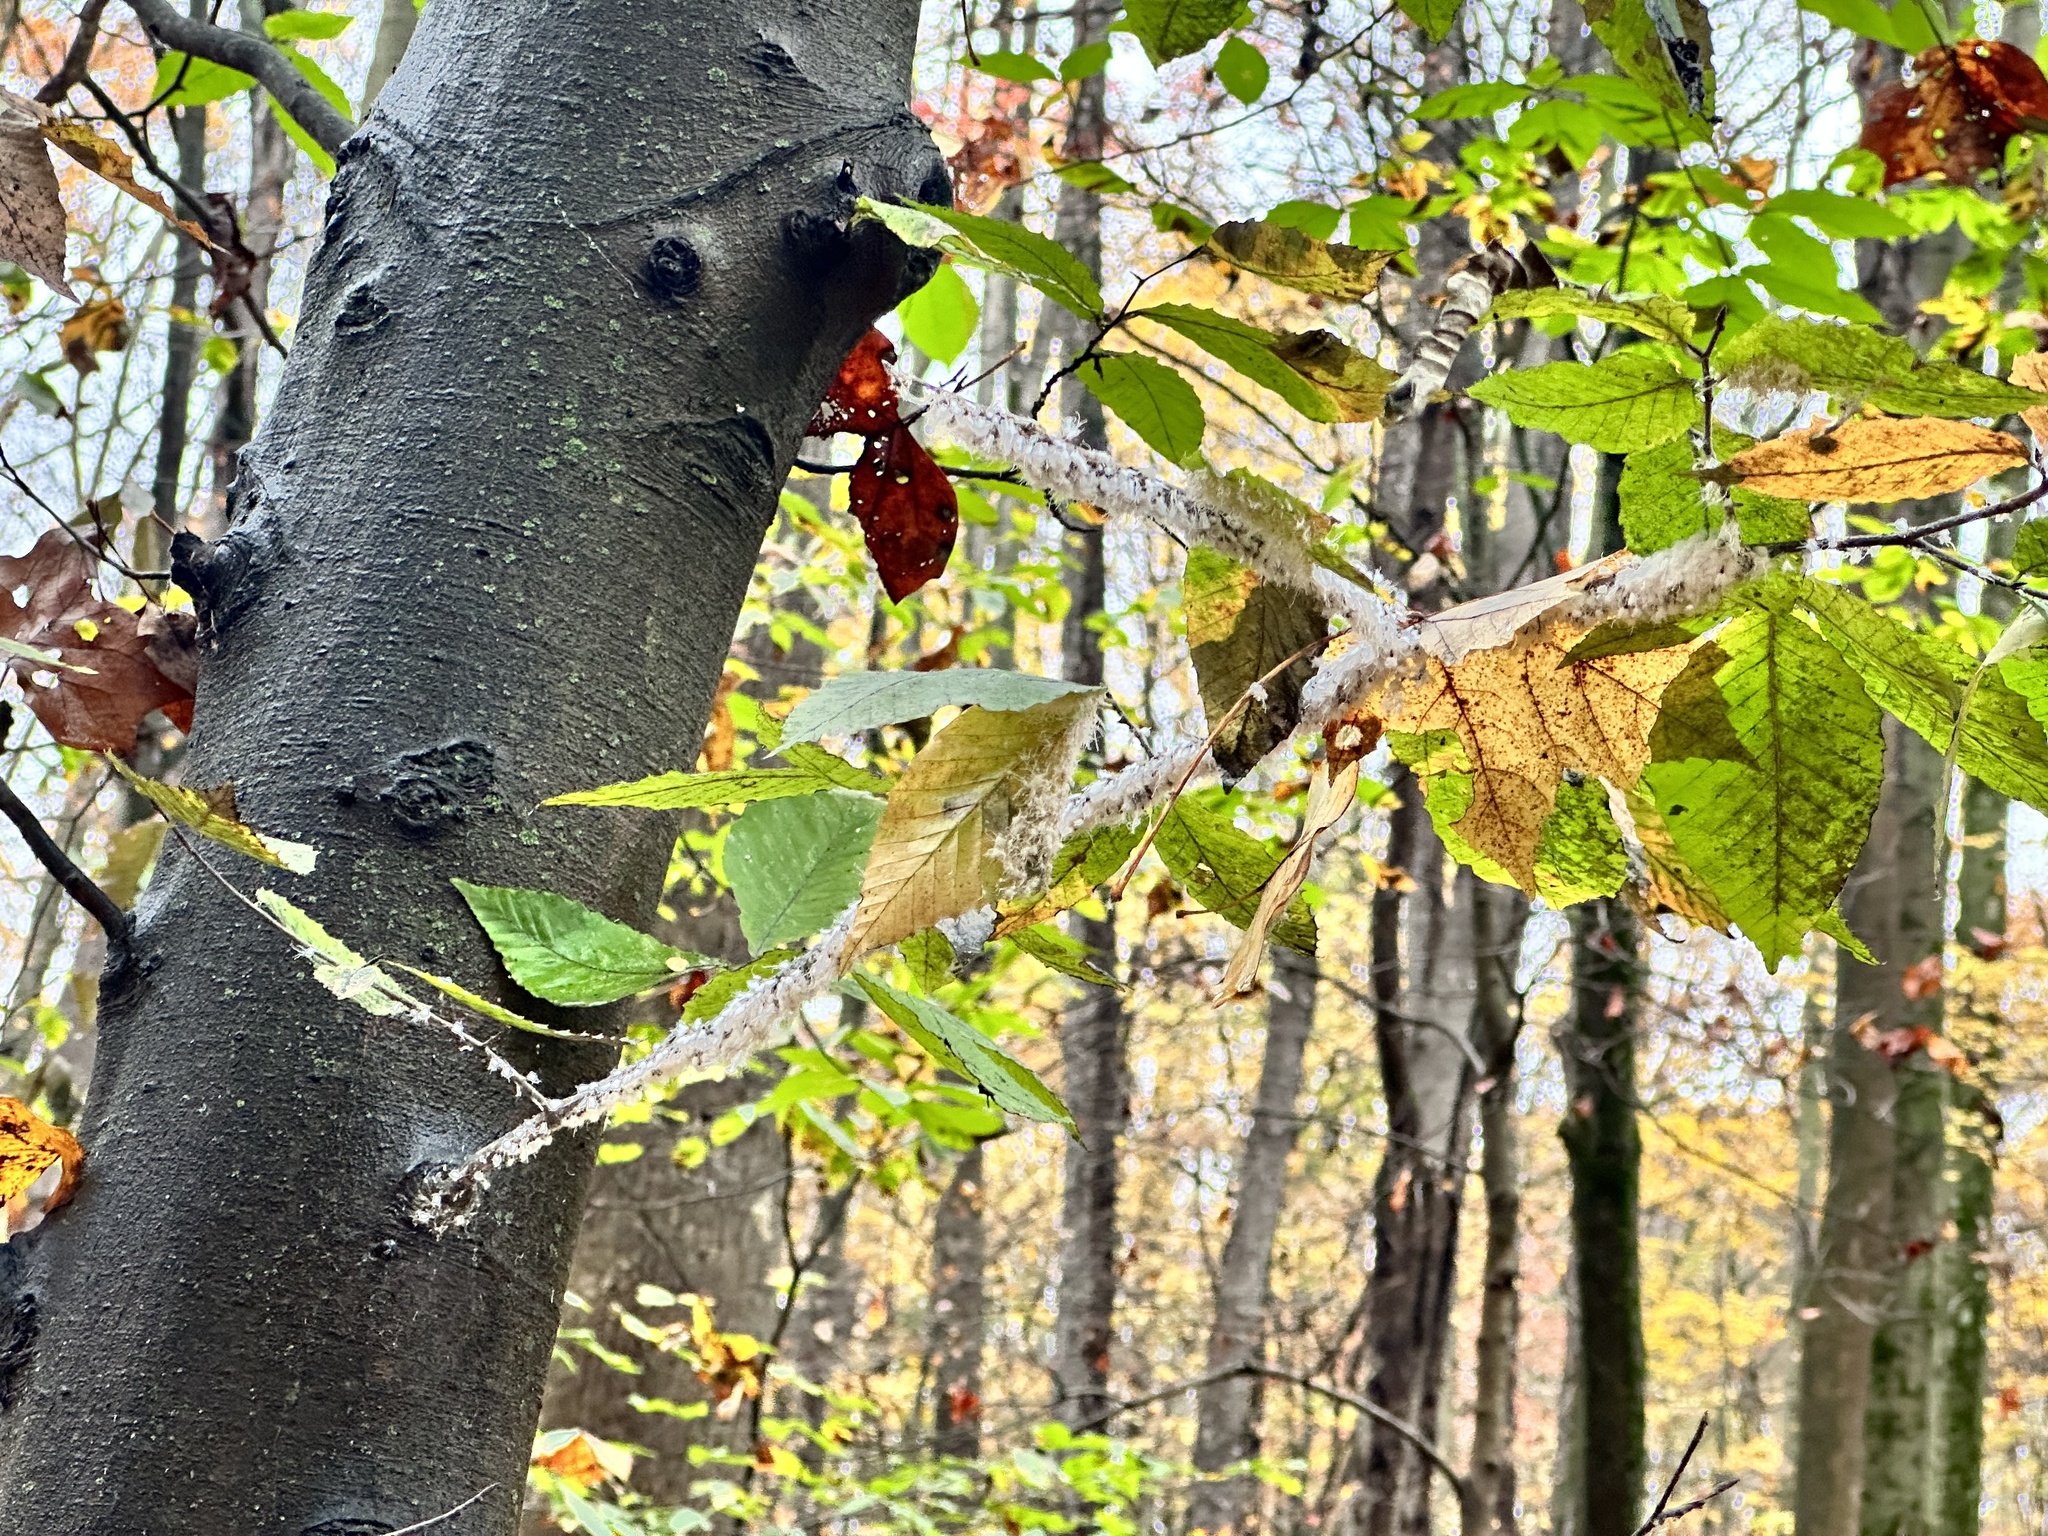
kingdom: Animalia
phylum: Arthropoda
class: Insecta
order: Hemiptera
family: Aphididae
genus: Grylloprociphilus
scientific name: Grylloprociphilus imbricator
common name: Beech blight aphid
